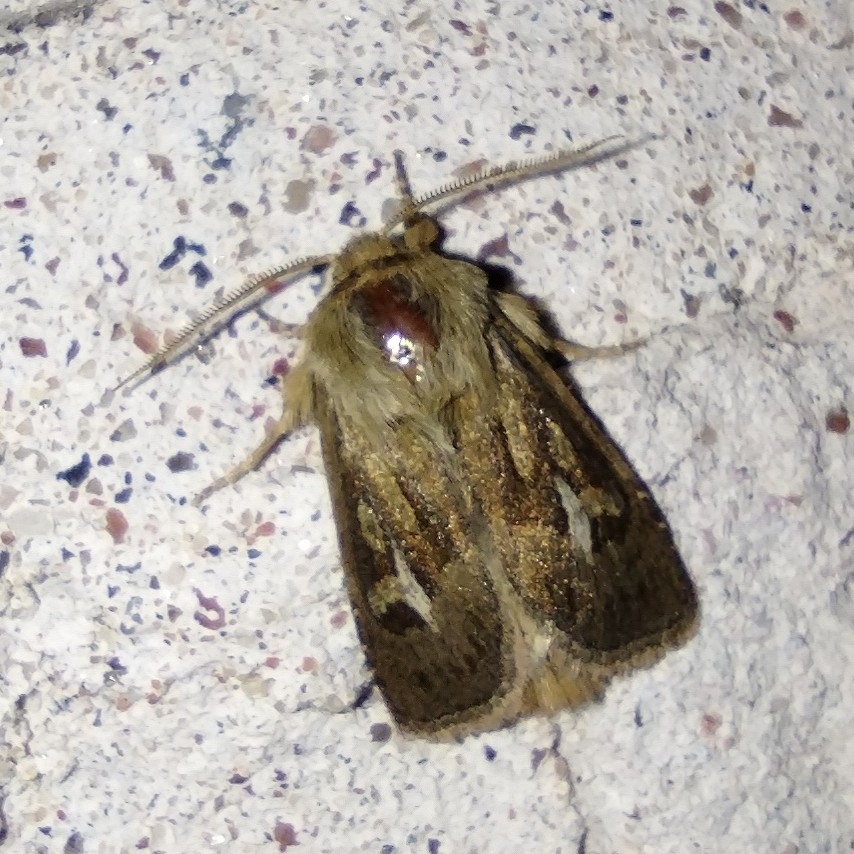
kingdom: Animalia
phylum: Arthropoda
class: Insecta
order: Lepidoptera
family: Noctuidae
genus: Cerapteryx
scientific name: Cerapteryx graminis
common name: Antler moth
